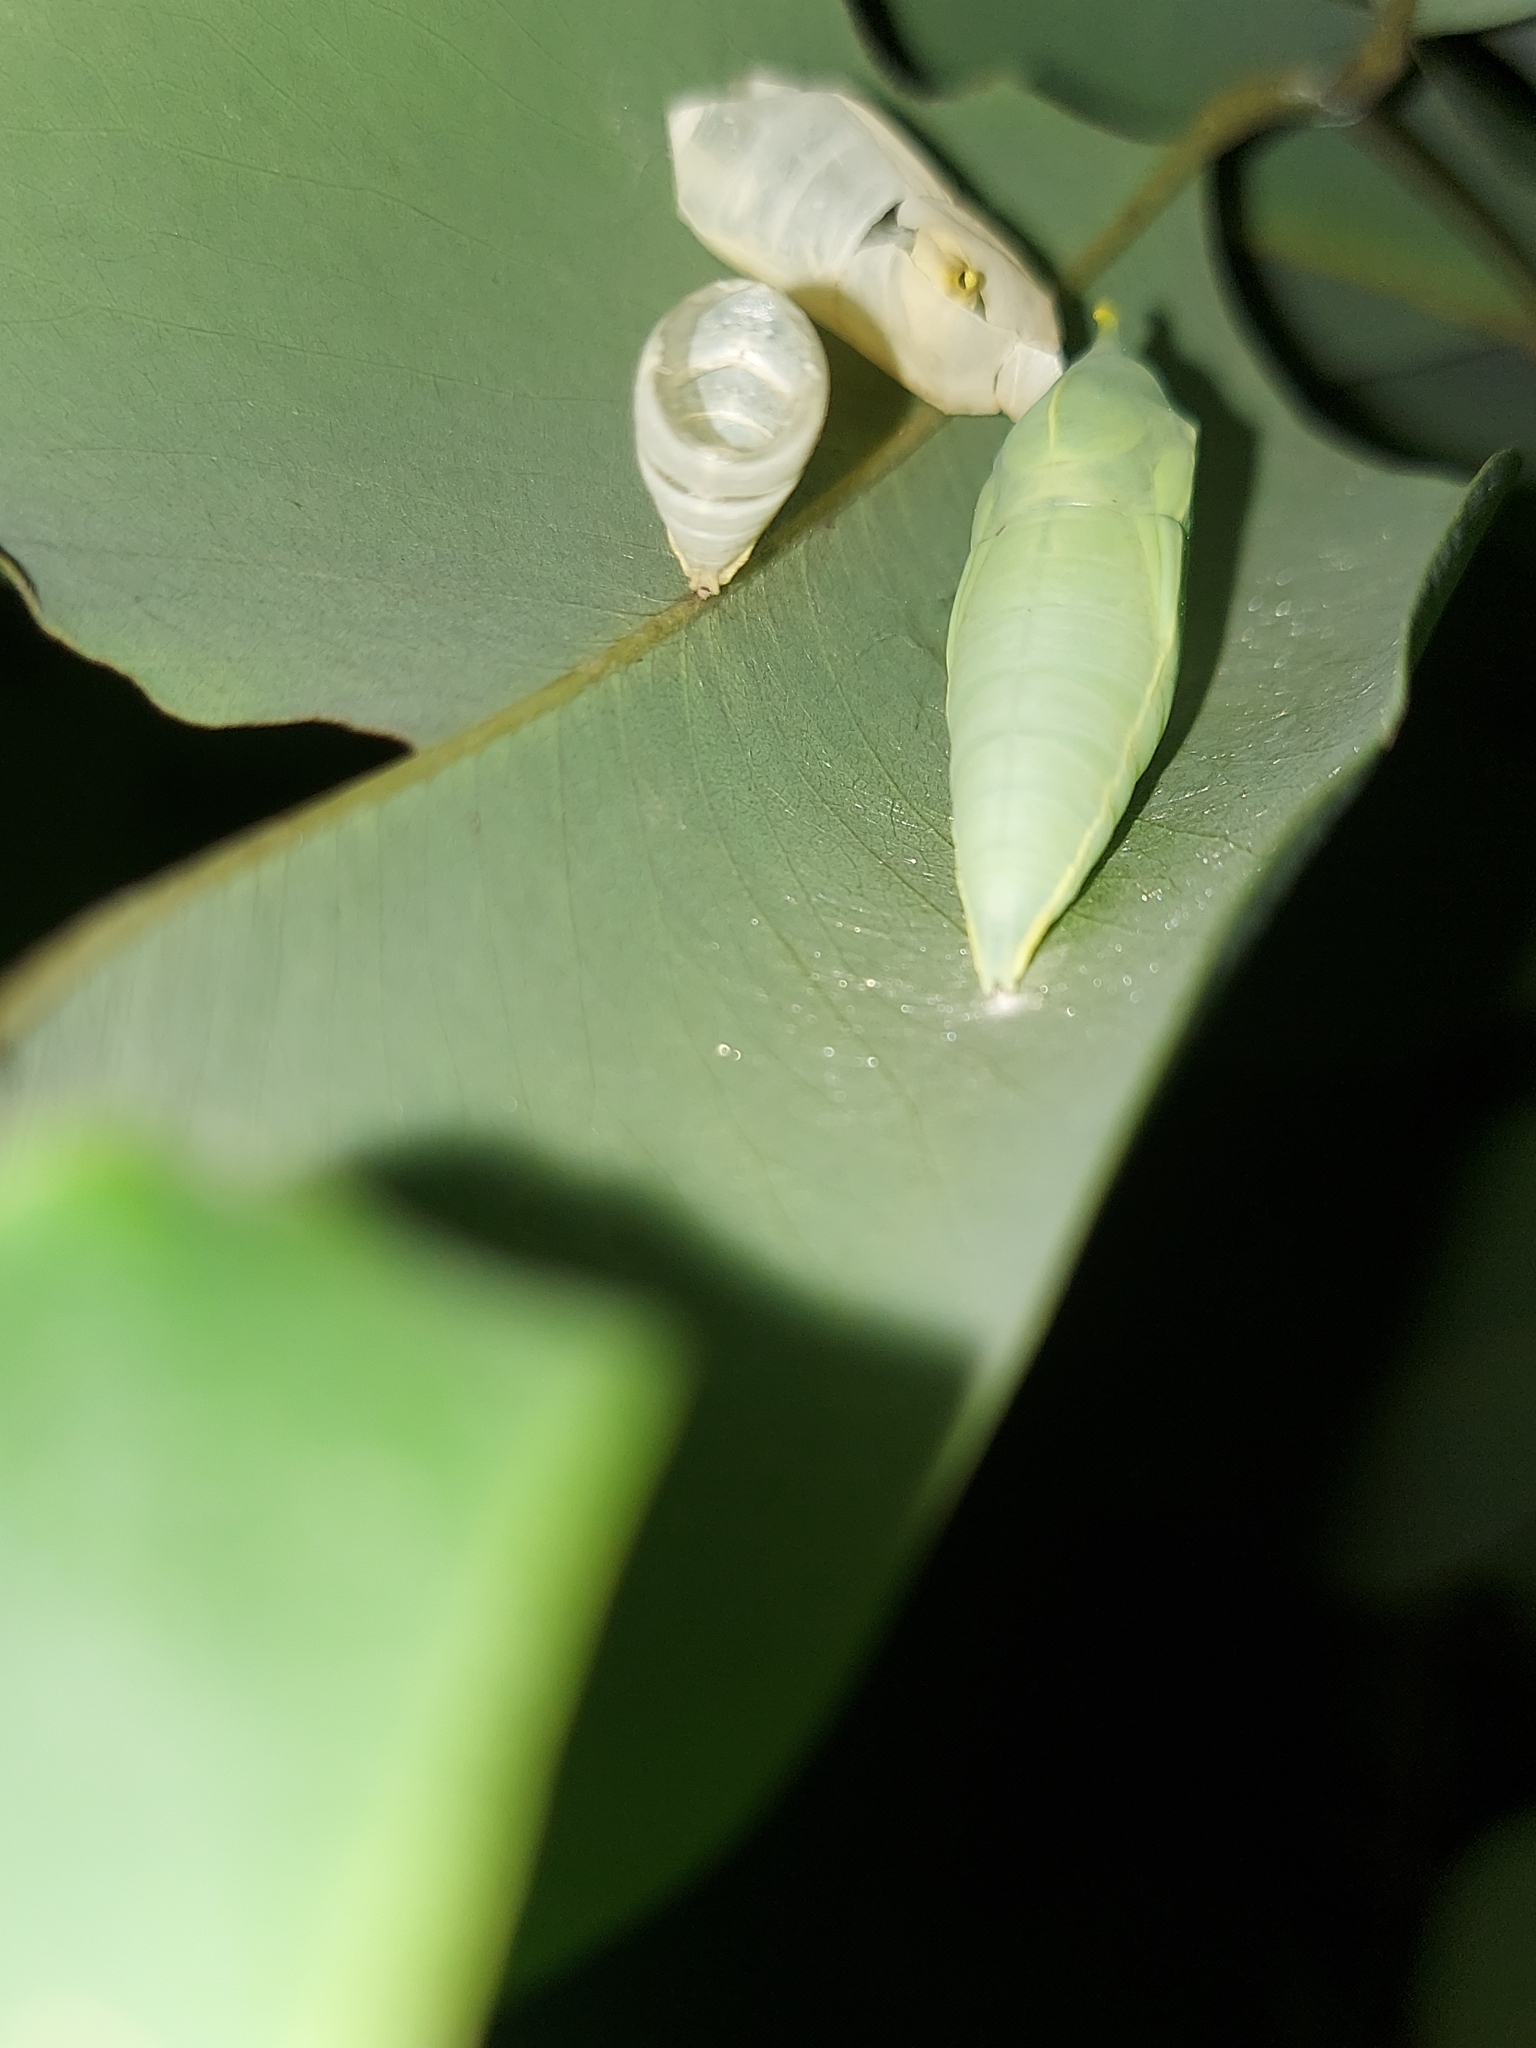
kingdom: Animalia
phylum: Arthropoda
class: Insecta
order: Lepidoptera
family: Pieridae
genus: Catopsilia
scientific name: Catopsilia pomona
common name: Common emigrant
